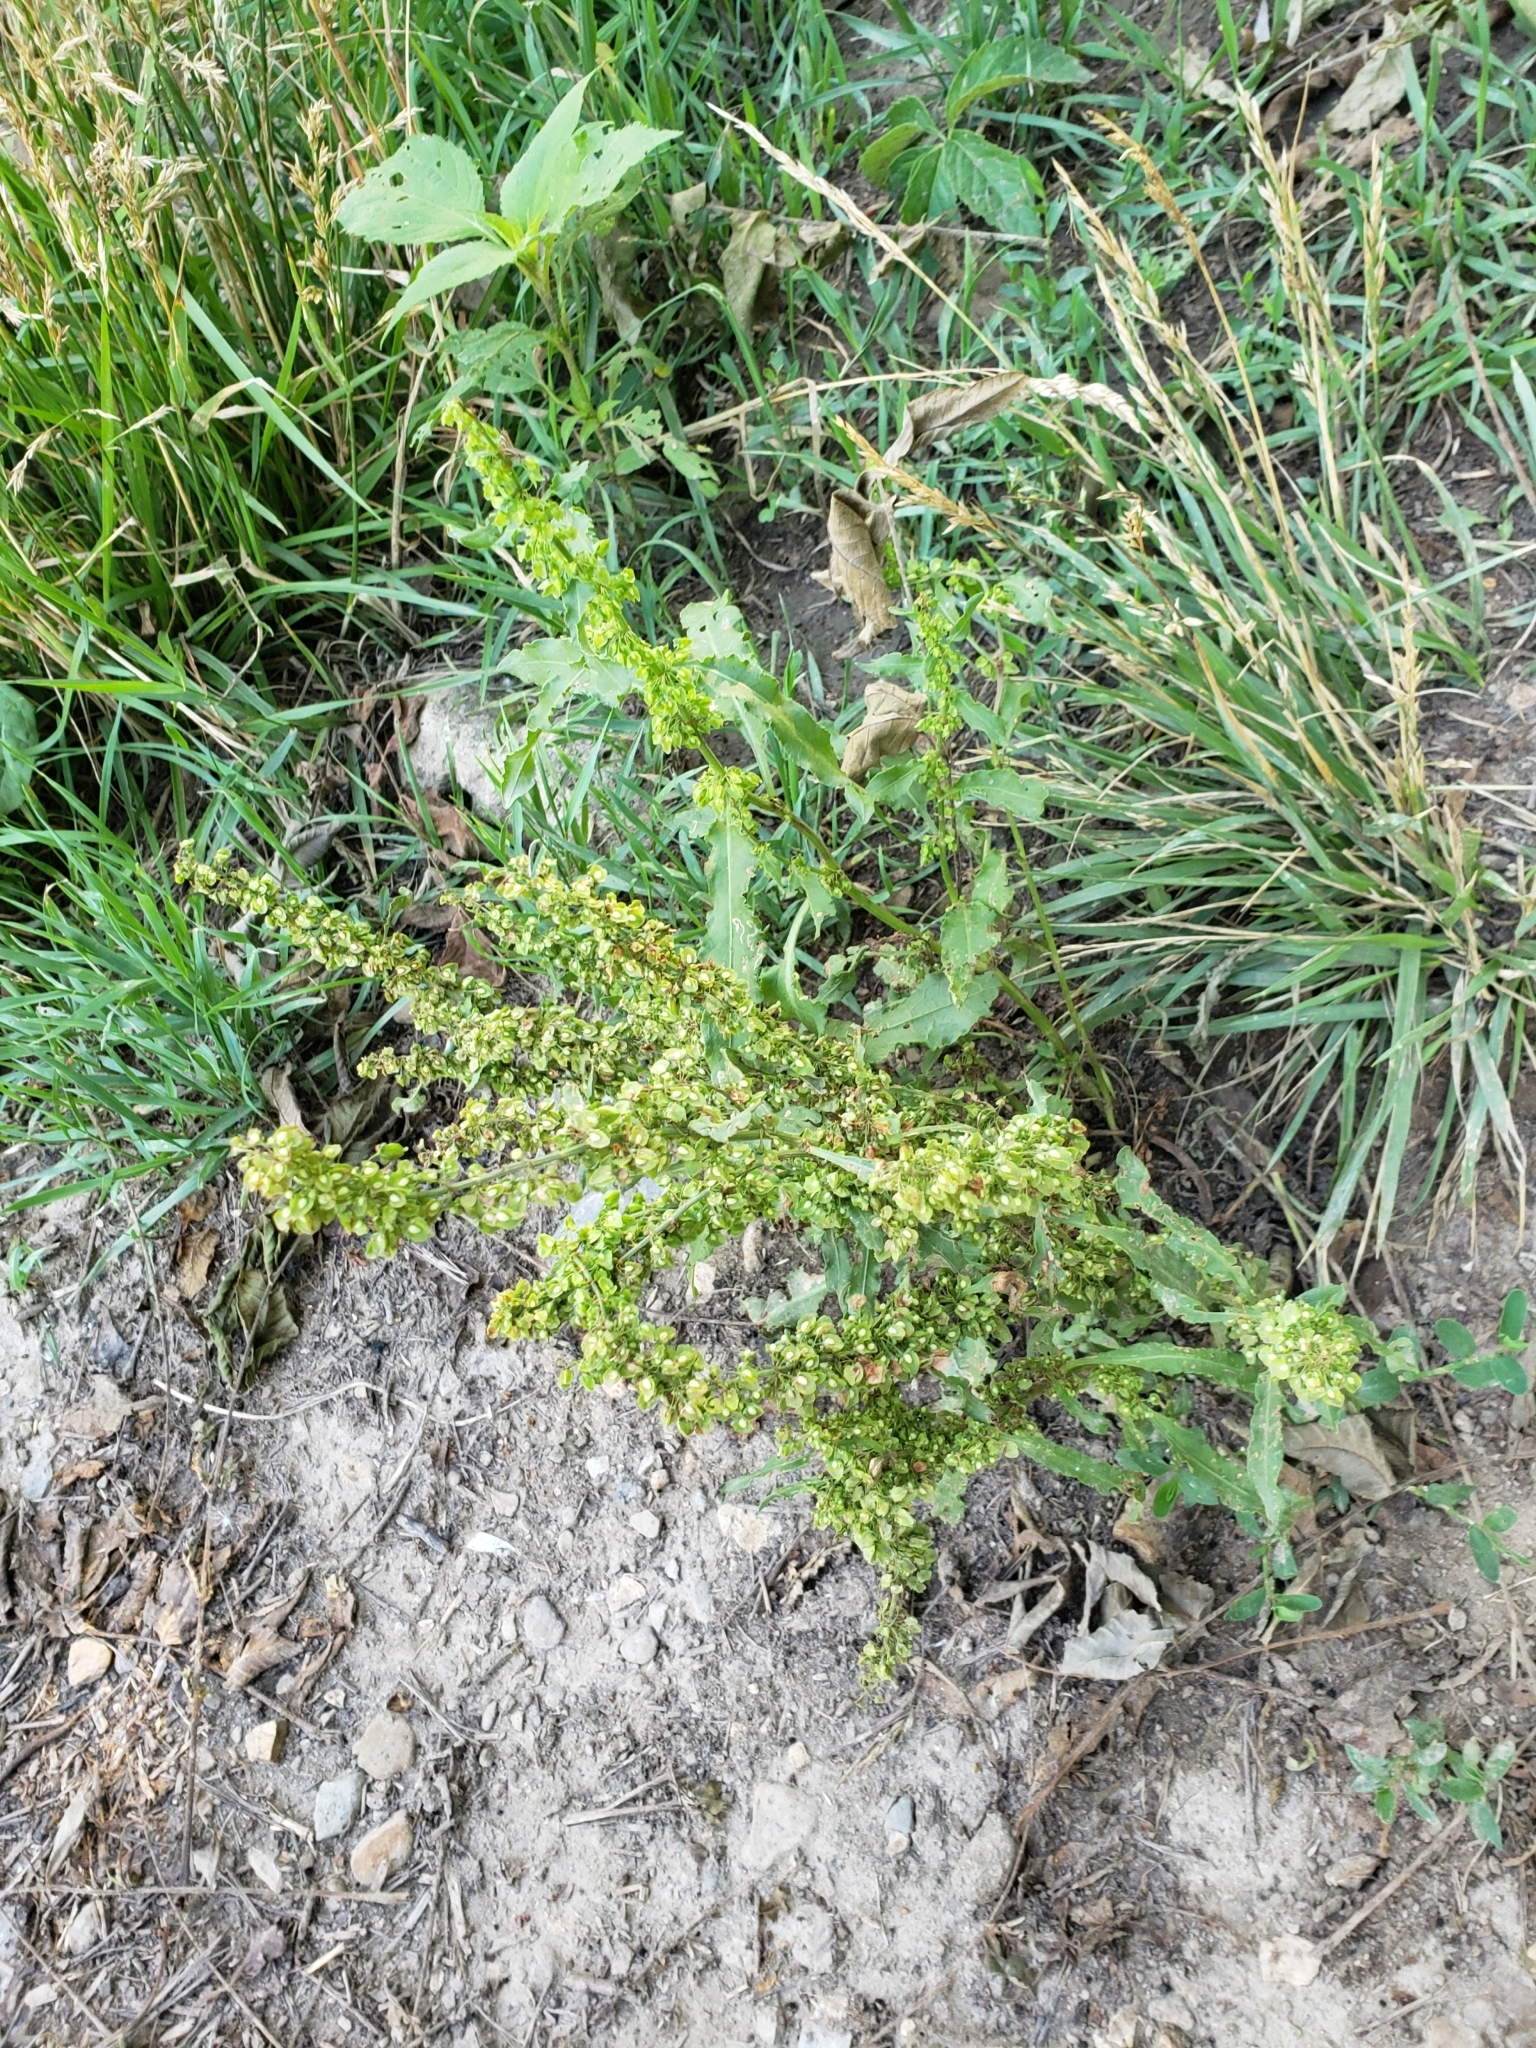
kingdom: Plantae
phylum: Tracheophyta
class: Magnoliopsida
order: Caryophyllales
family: Polygonaceae
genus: Rumex
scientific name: Rumex crispus
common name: Curled dock
